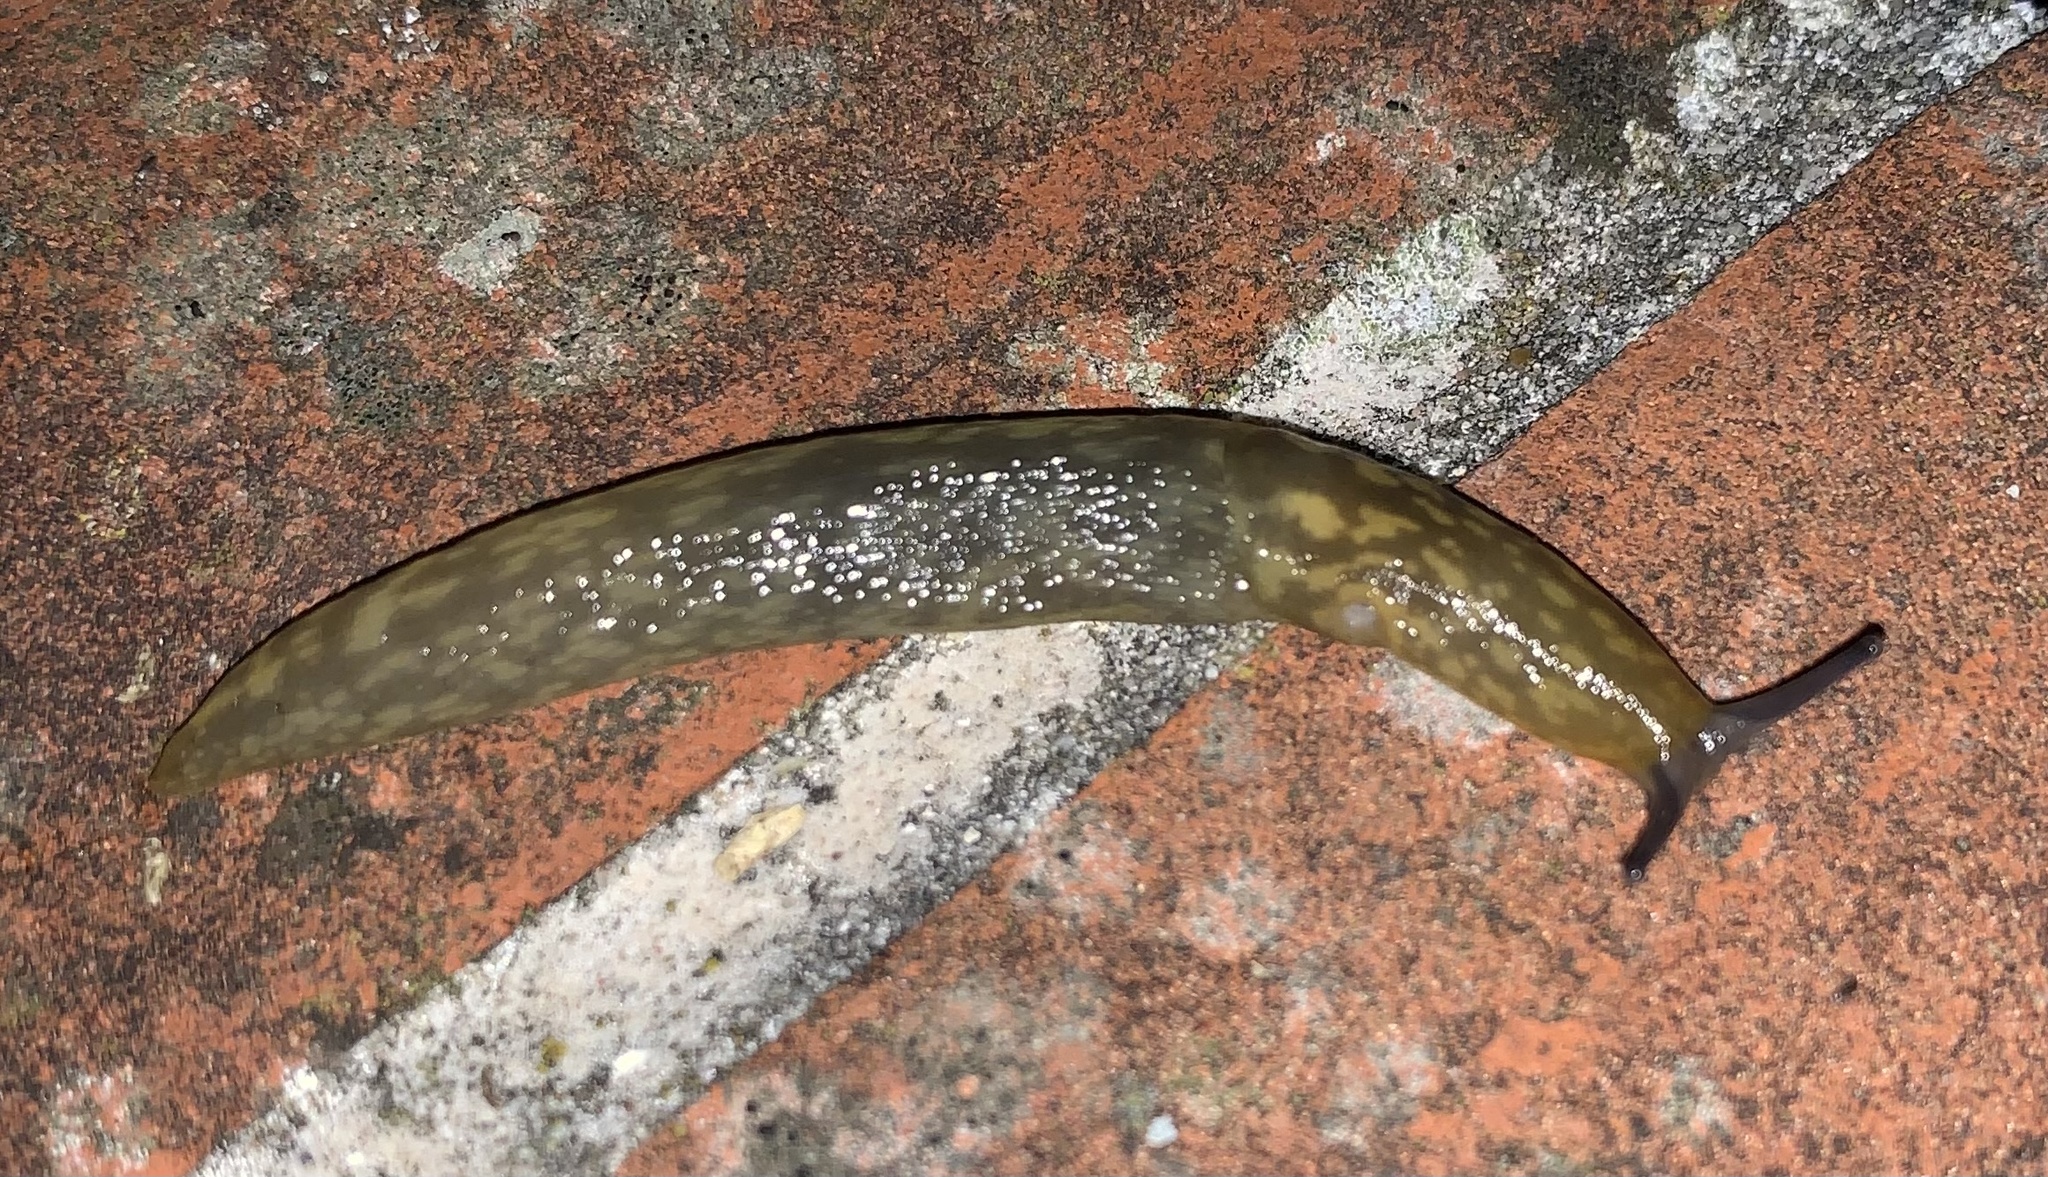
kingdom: Animalia
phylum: Mollusca
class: Gastropoda
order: Stylommatophora
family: Limacidae
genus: Limacus
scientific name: Limacus maculatus
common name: Irish yellow slug
